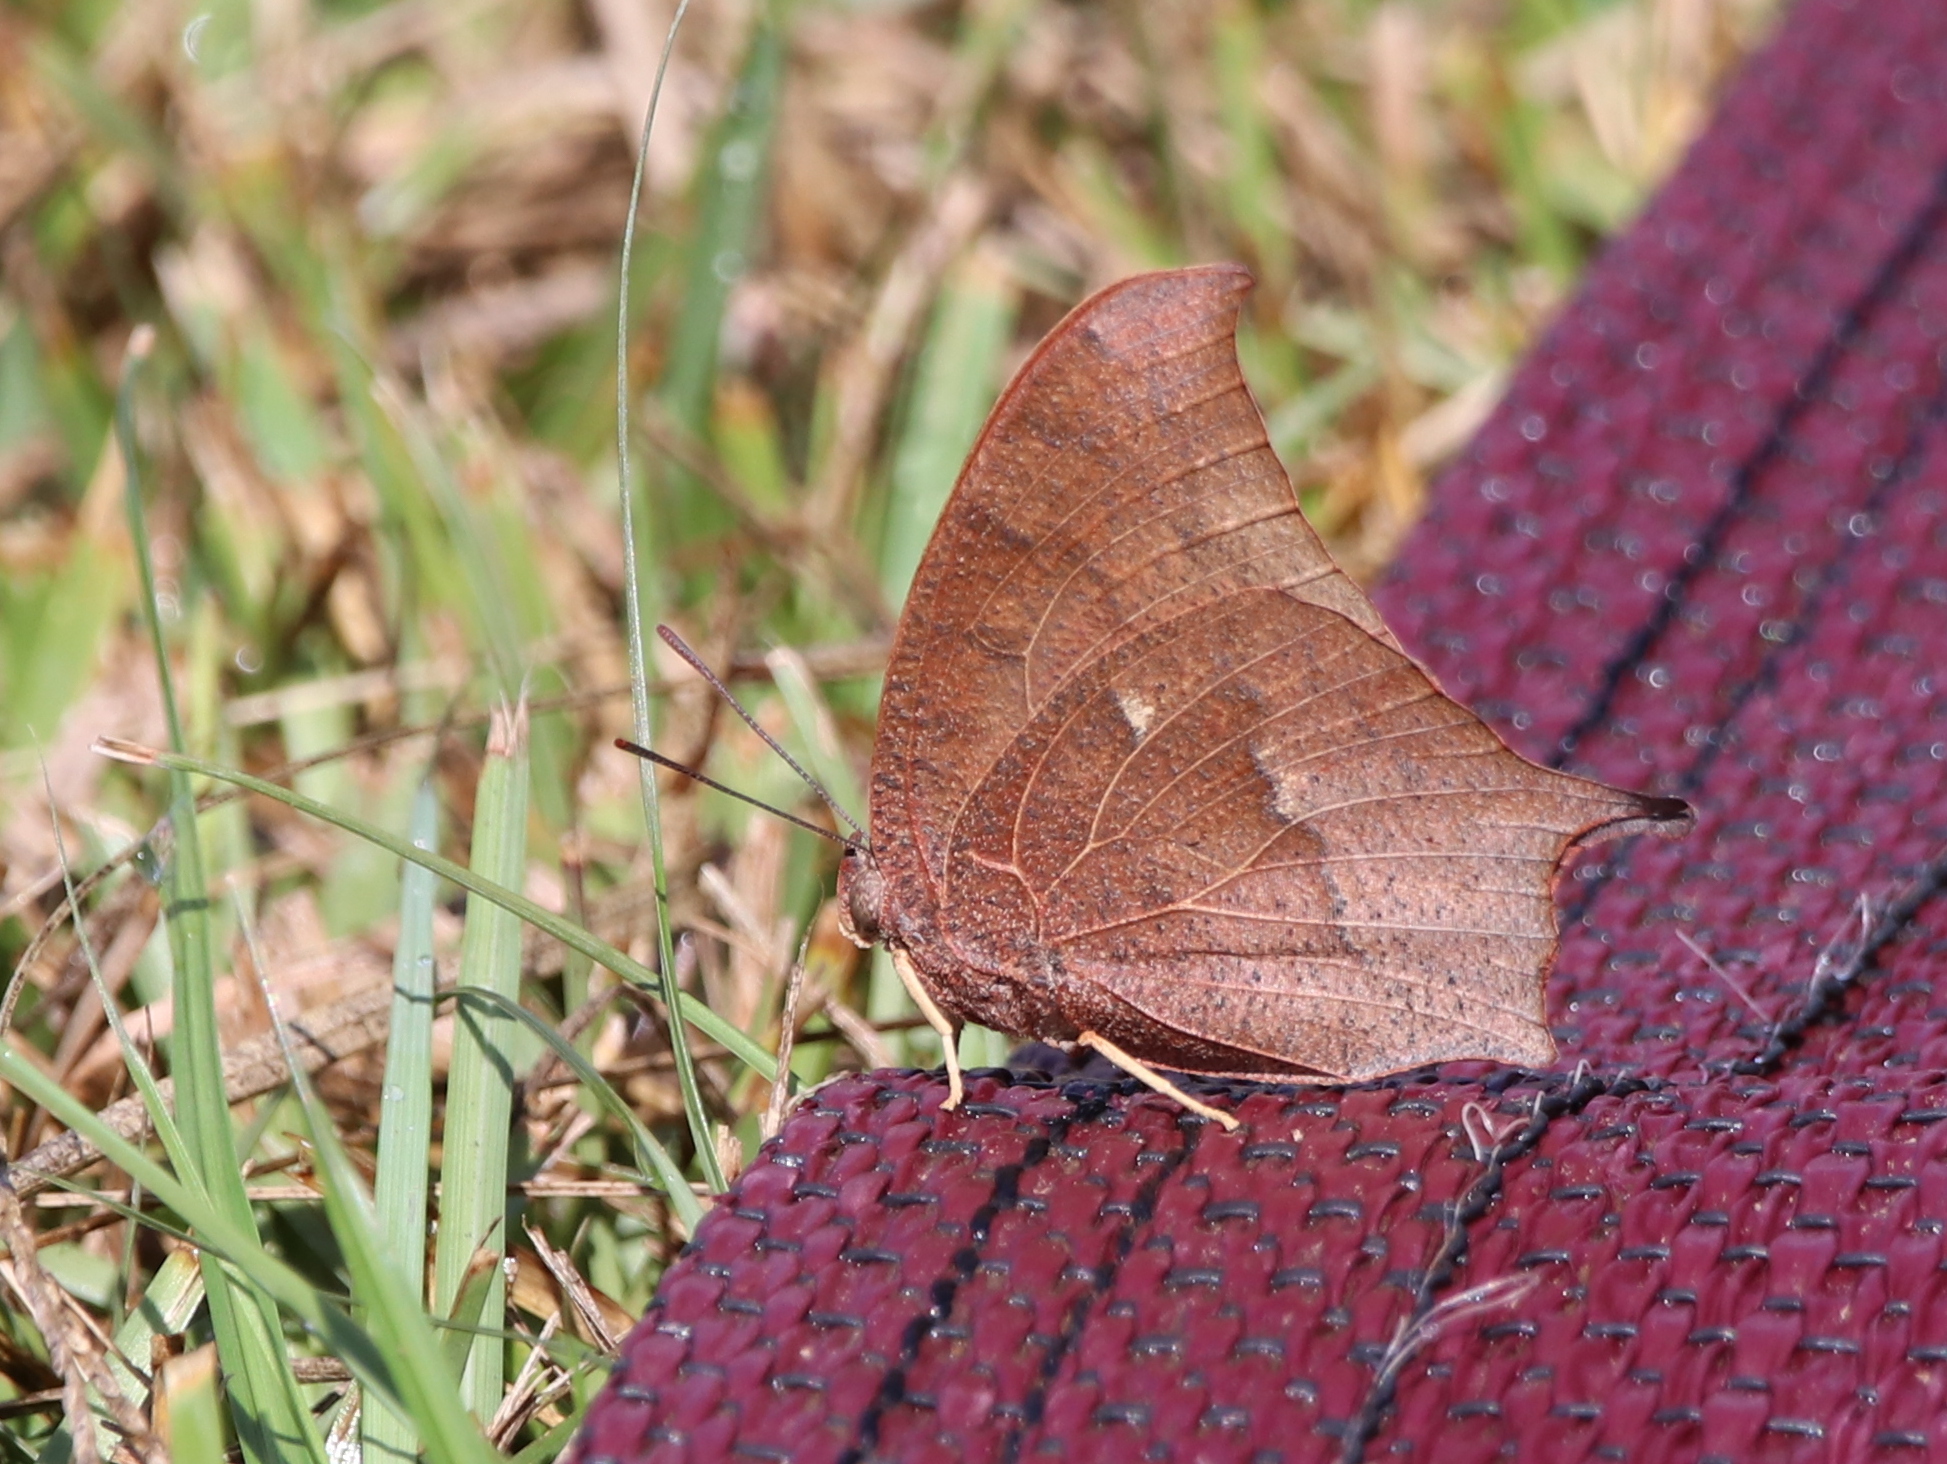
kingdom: Animalia
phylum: Arthropoda
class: Insecta
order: Lepidoptera
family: Nymphalidae
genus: Anaea
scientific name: Anaea andria
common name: Goatweed leafwing
